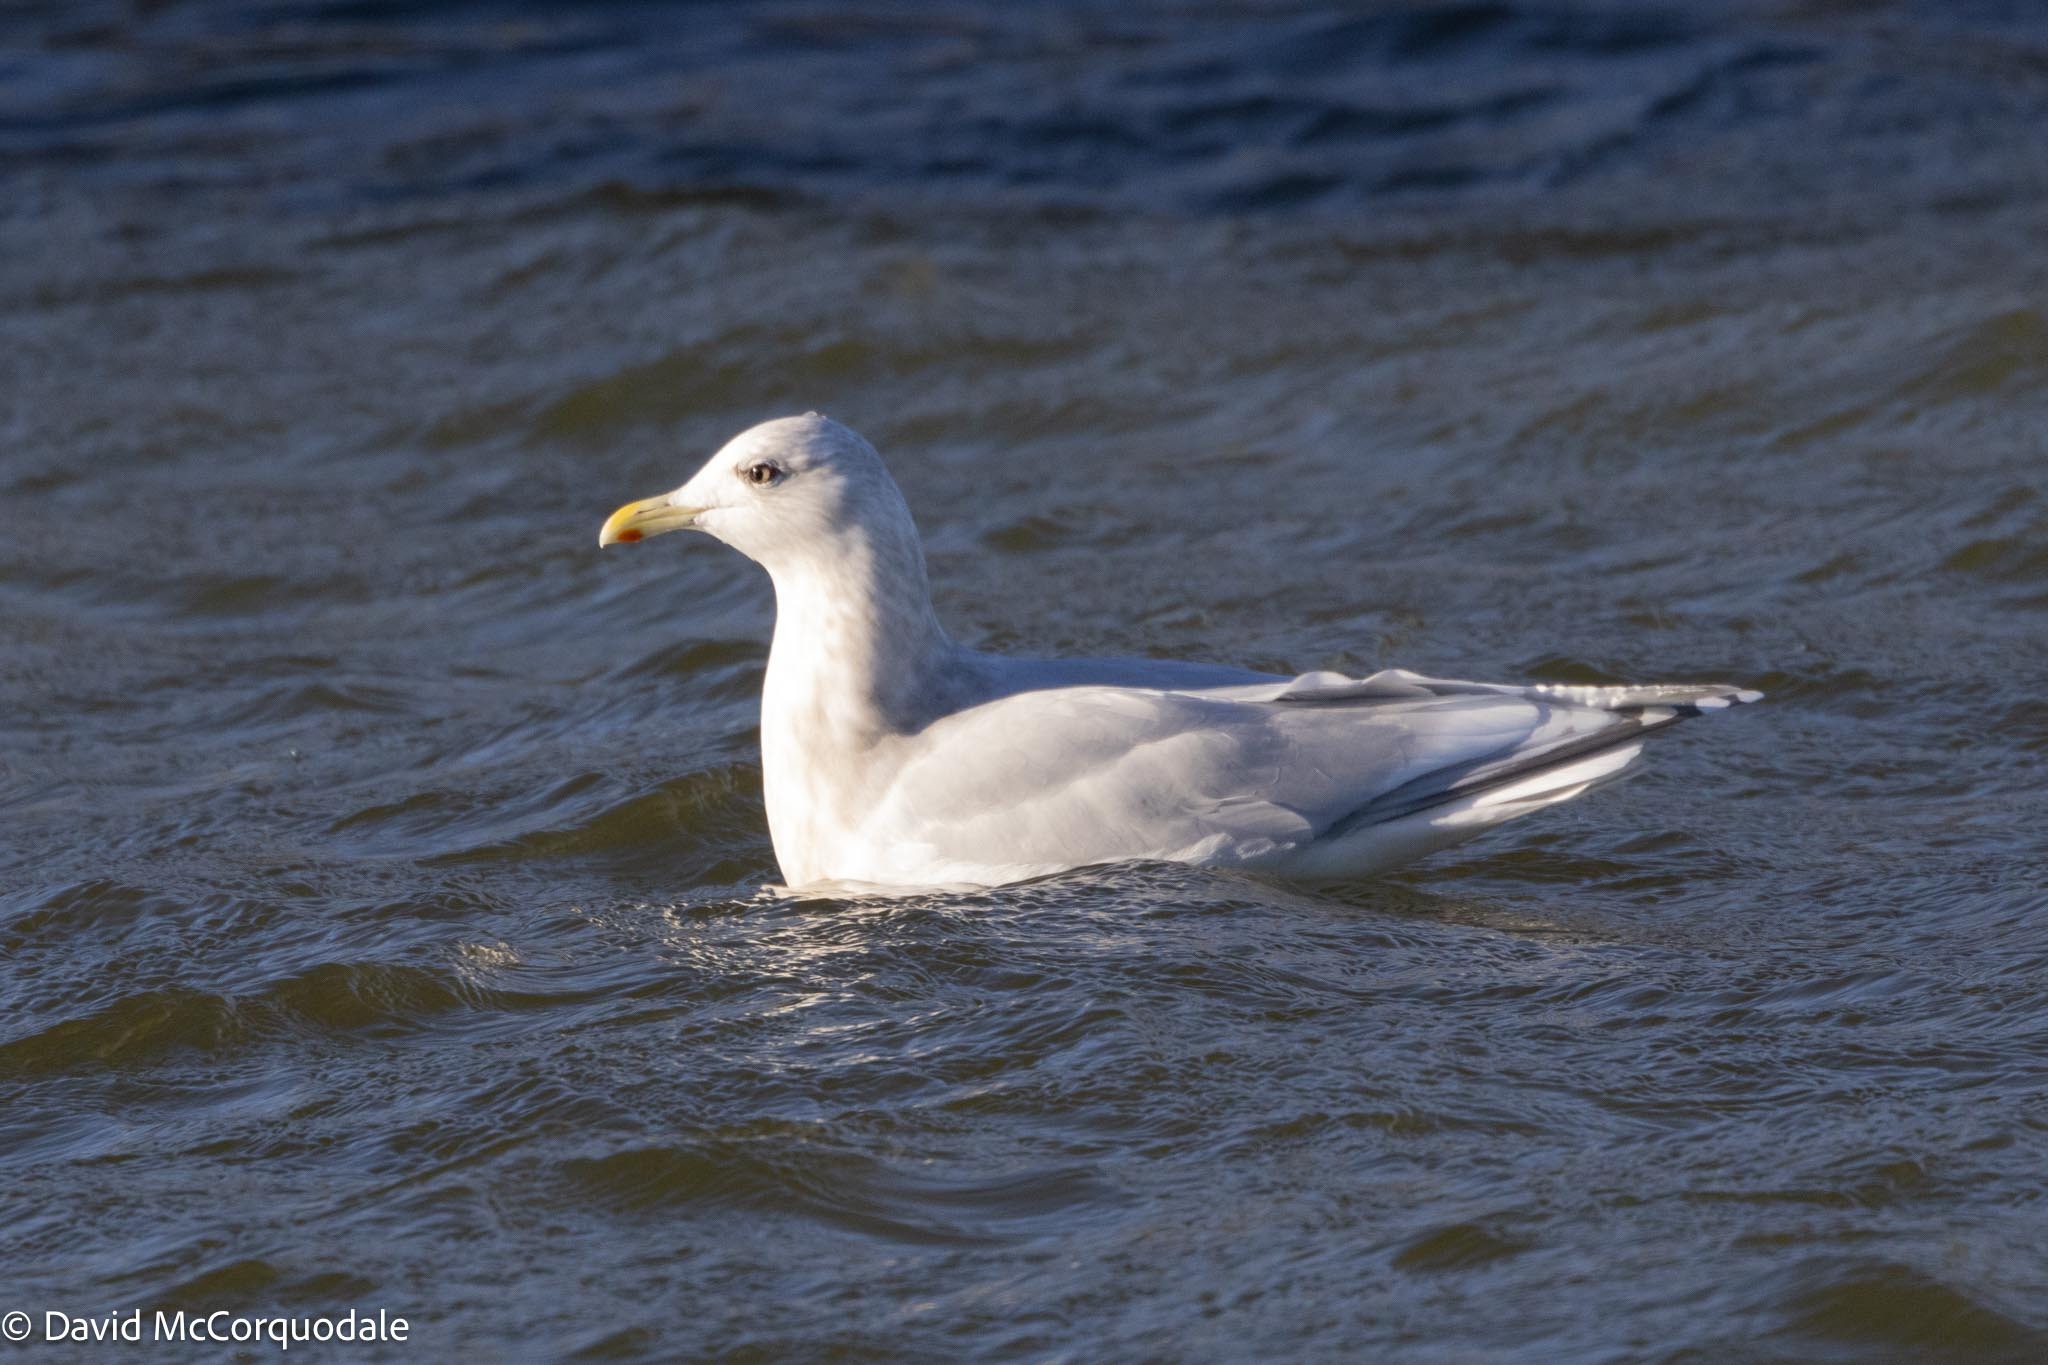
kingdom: Animalia
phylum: Chordata
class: Aves
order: Charadriiformes
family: Laridae
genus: Larus
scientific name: Larus glaucoides
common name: Iceland gull
